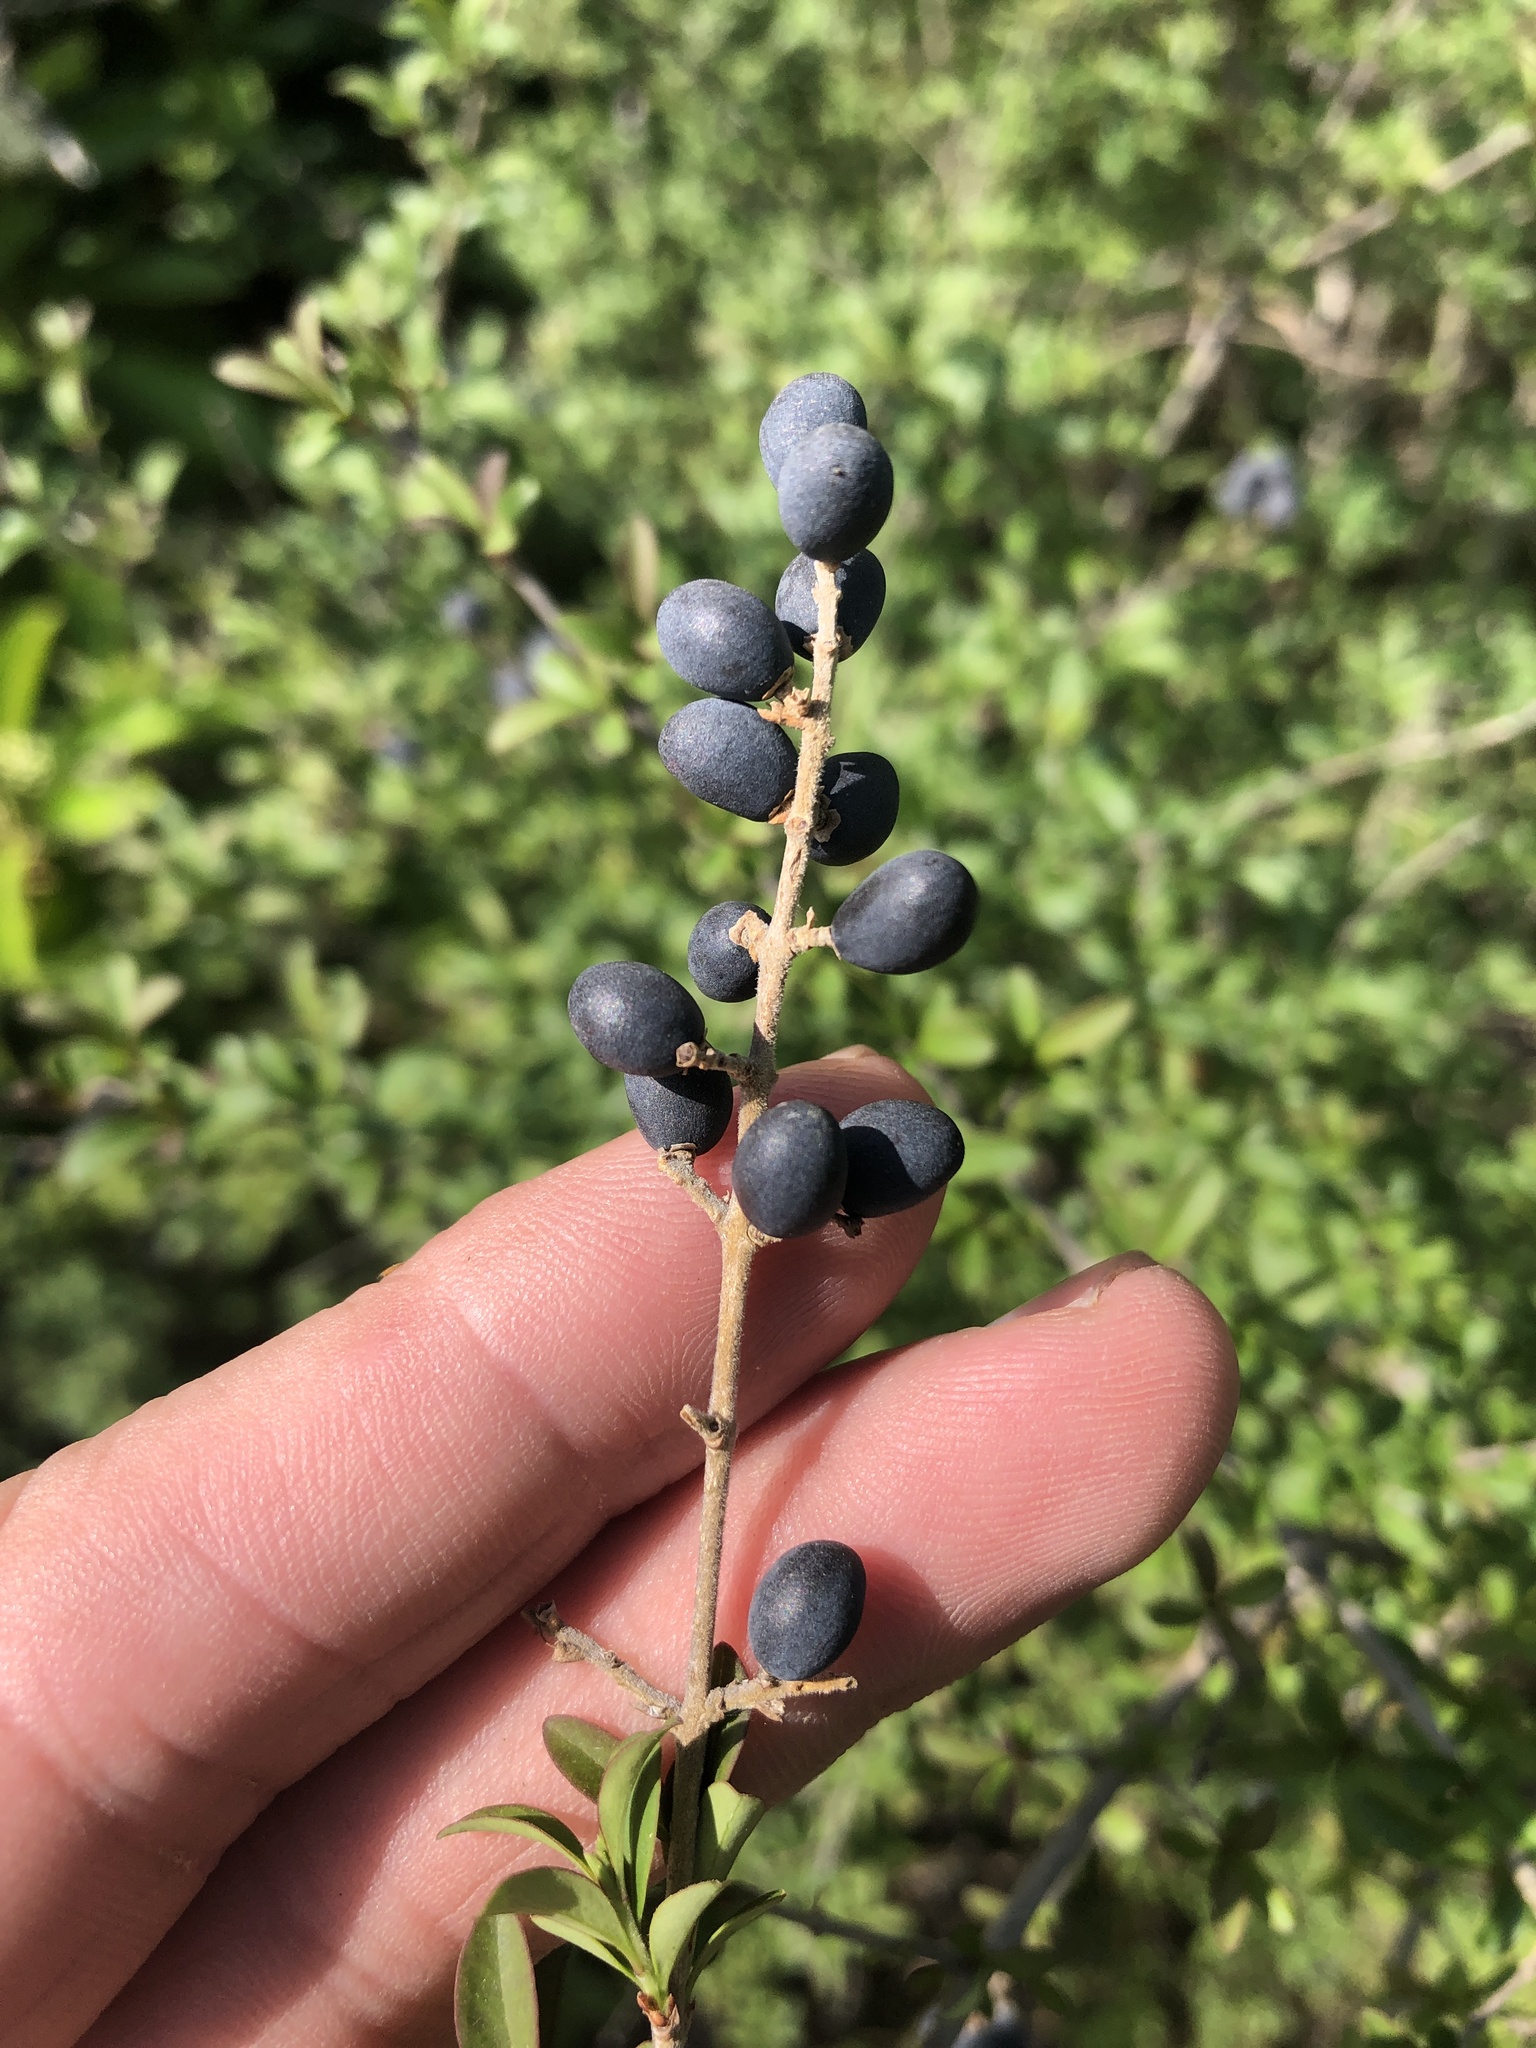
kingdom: Plantae
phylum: Tracheophyta
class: Magnoliopsida
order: Lamiales
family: Oleaceae
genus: Ligustrum
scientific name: Ligustrum quihoui
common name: Waxyleaf privet
